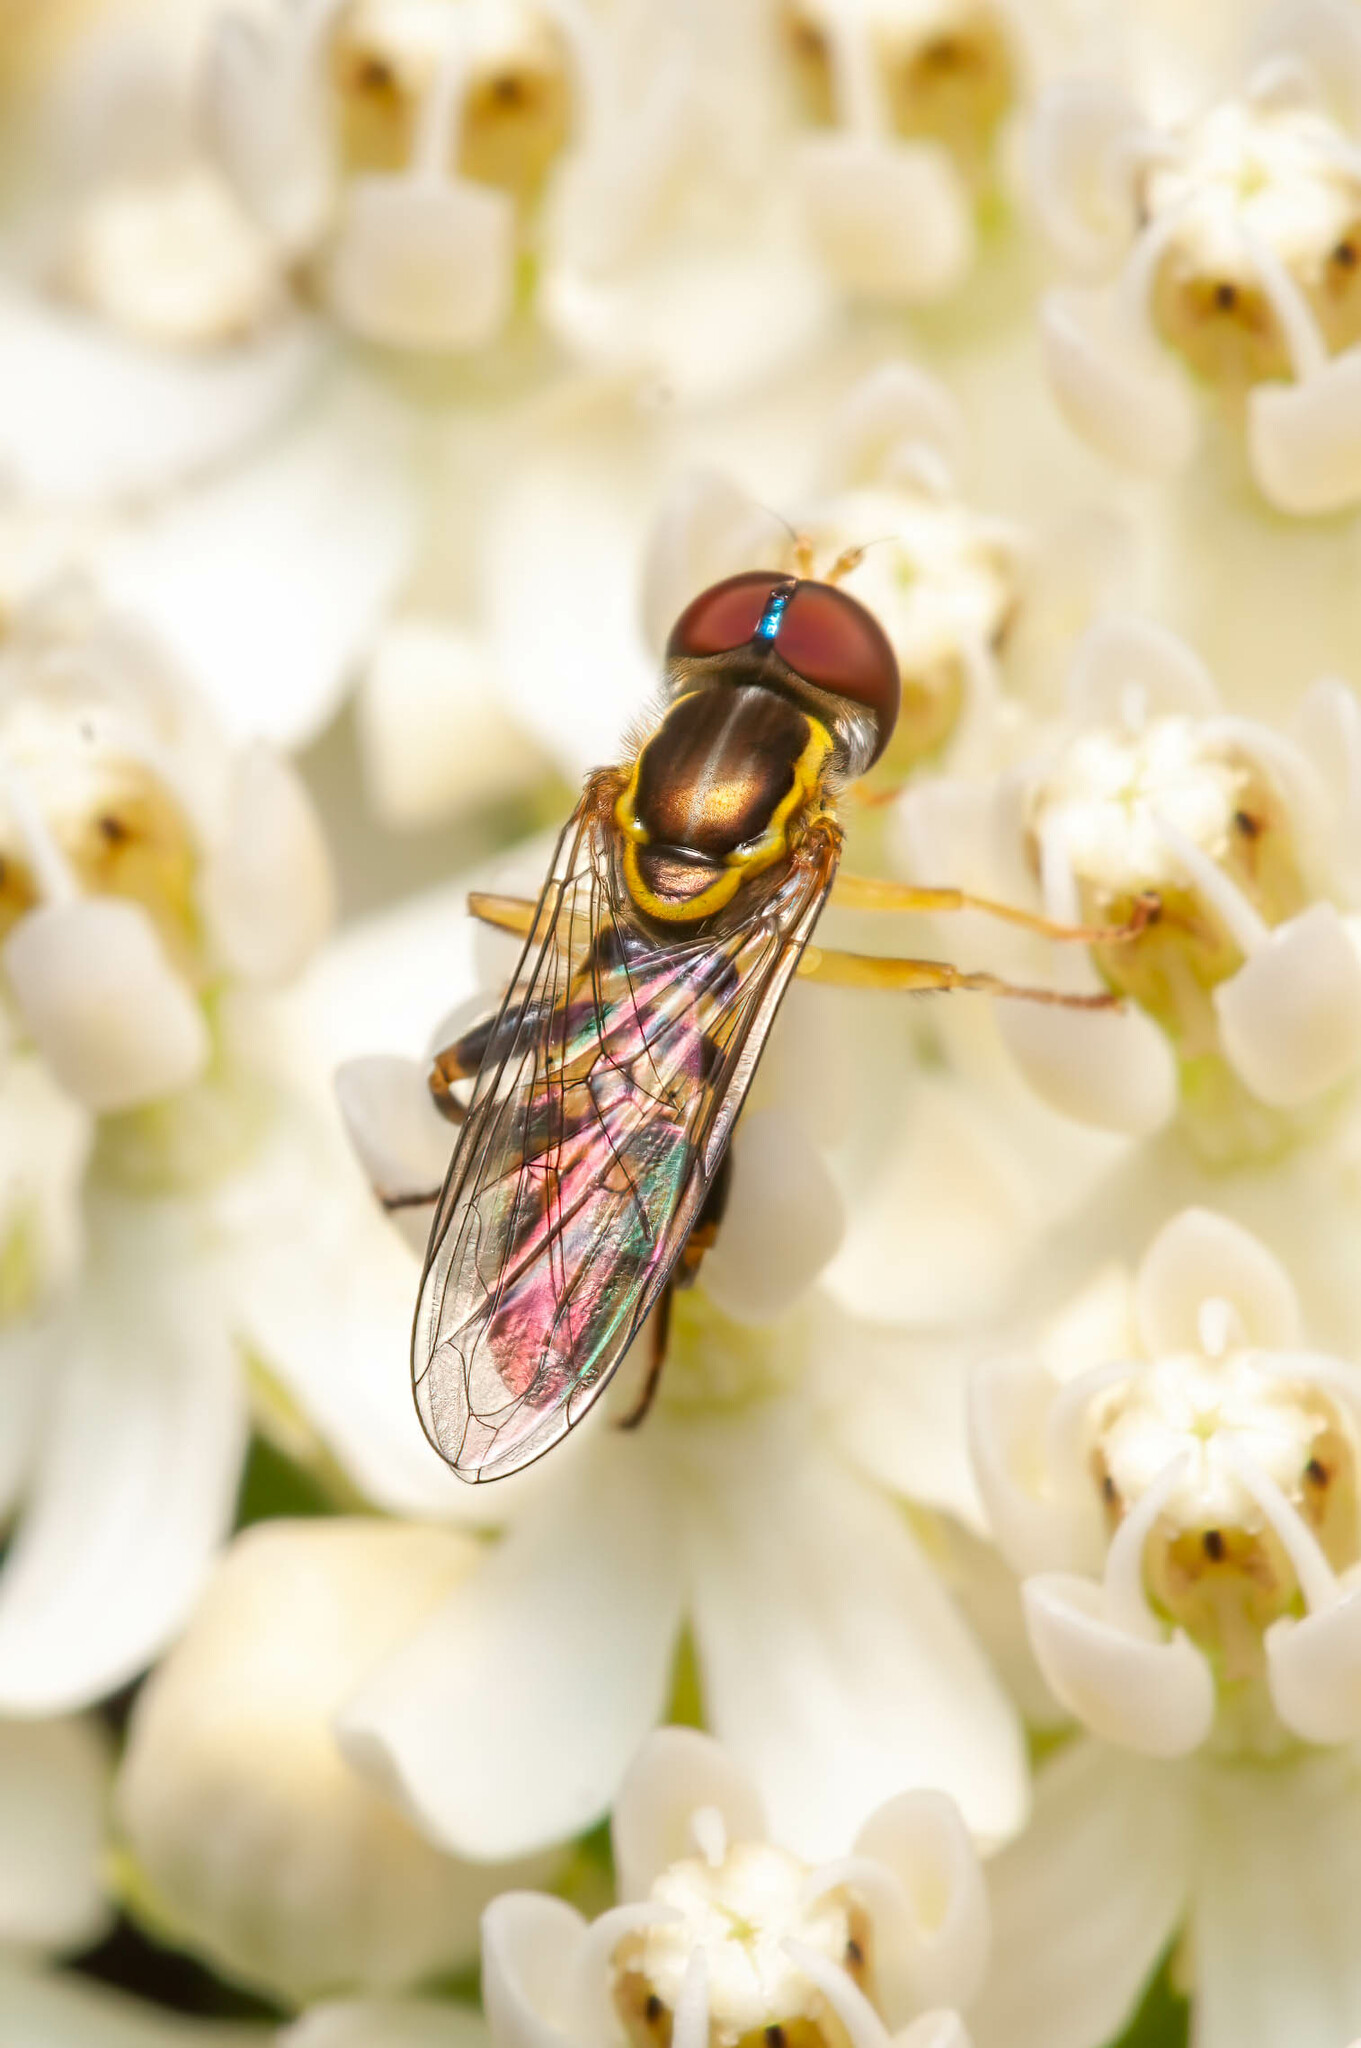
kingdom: Animalia
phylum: Arthropoda
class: Insecta
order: Diptera
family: Syrphidae
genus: Toxomerus
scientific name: Toxomerus geminatus
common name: Eastern calligrapher
